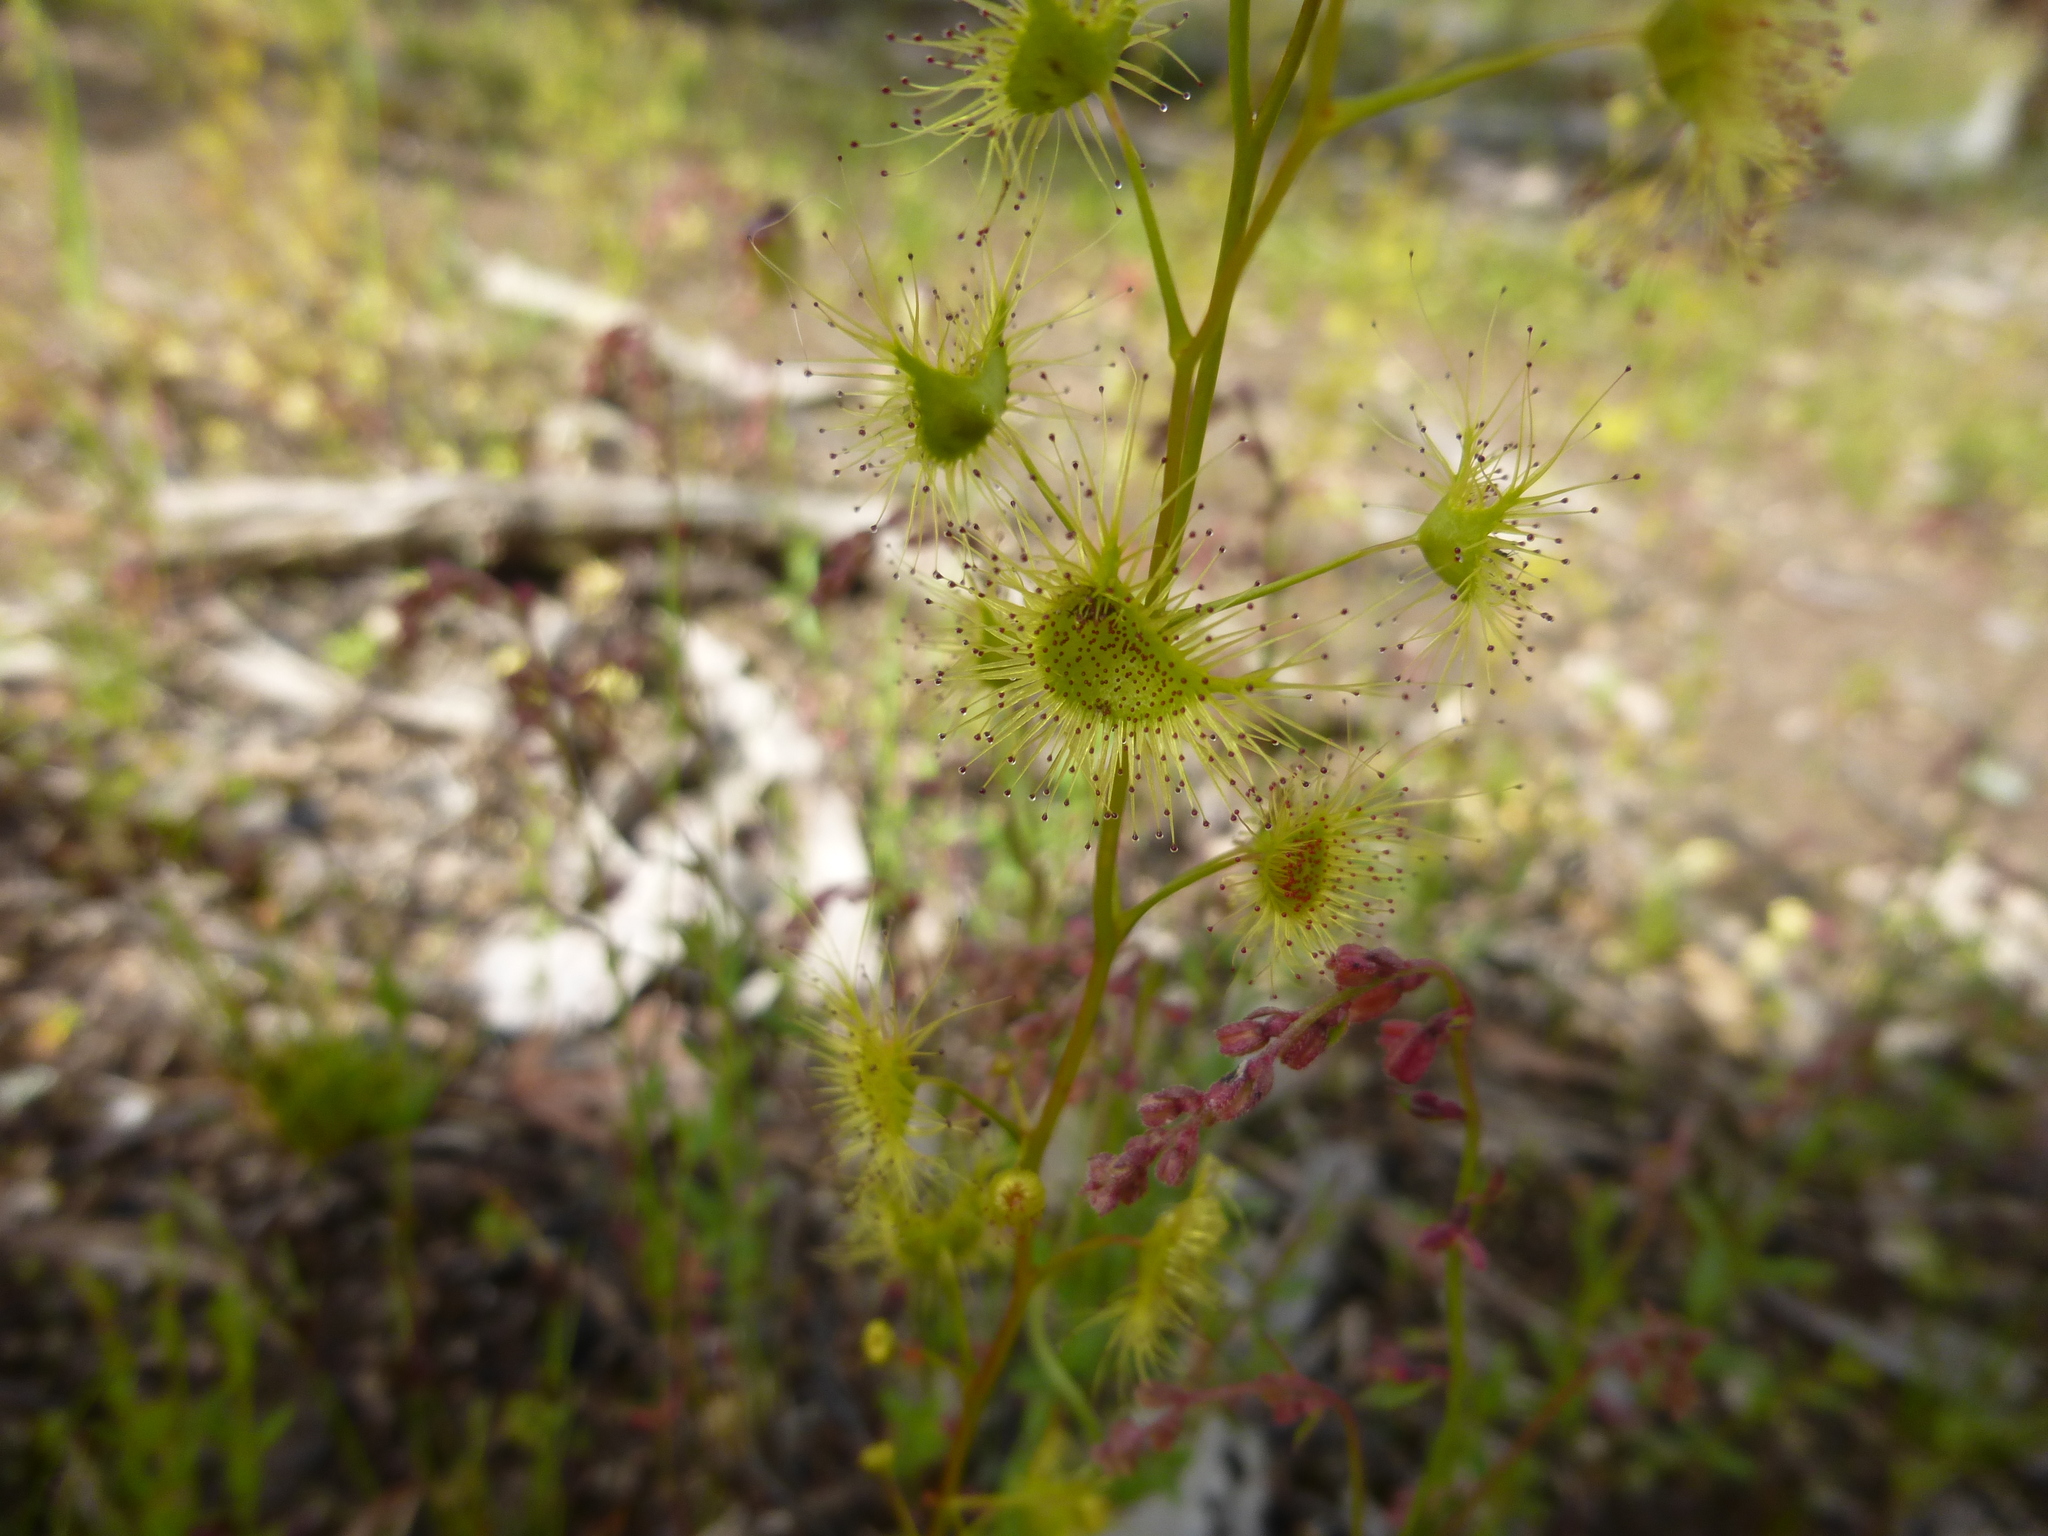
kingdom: Plantae
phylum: Tracheophyta
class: Magnoliopsida
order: Caryophyllales
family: Droseraceae
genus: Drosera
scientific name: Drosera gunniana
